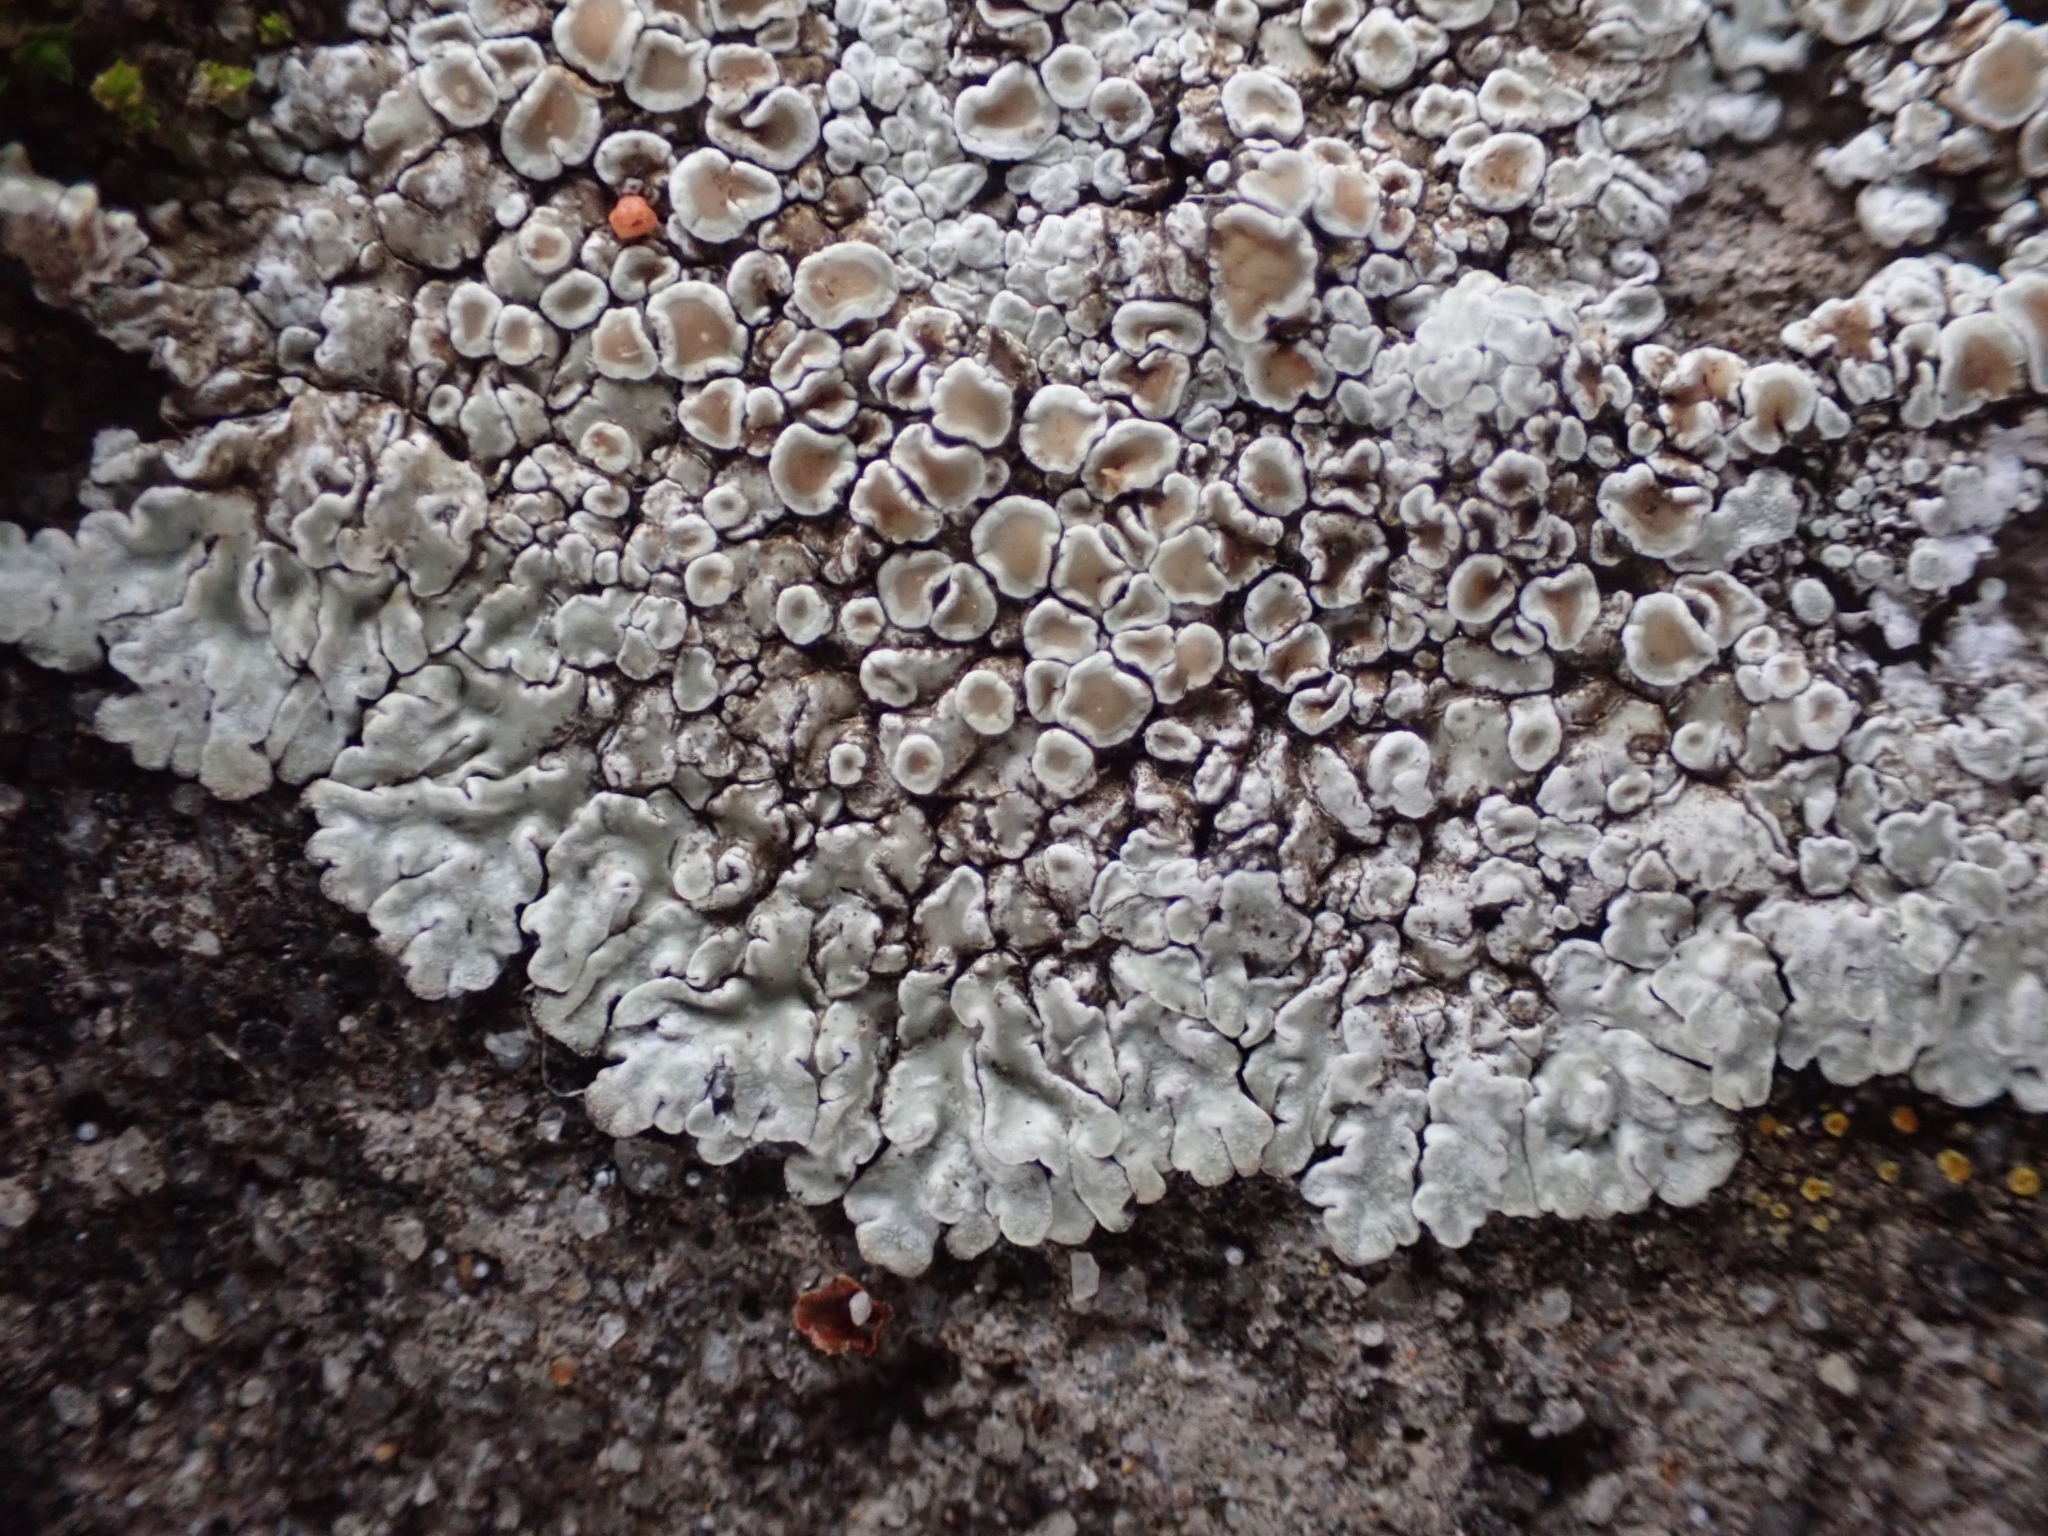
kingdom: Fungi
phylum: Ascomycota
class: Lecanoromycetes
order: Lecanorales
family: Lecanoraceae
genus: Protoparmeliopsis
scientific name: Protoparmeliopsis muralis
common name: Stonewall rim lichen
